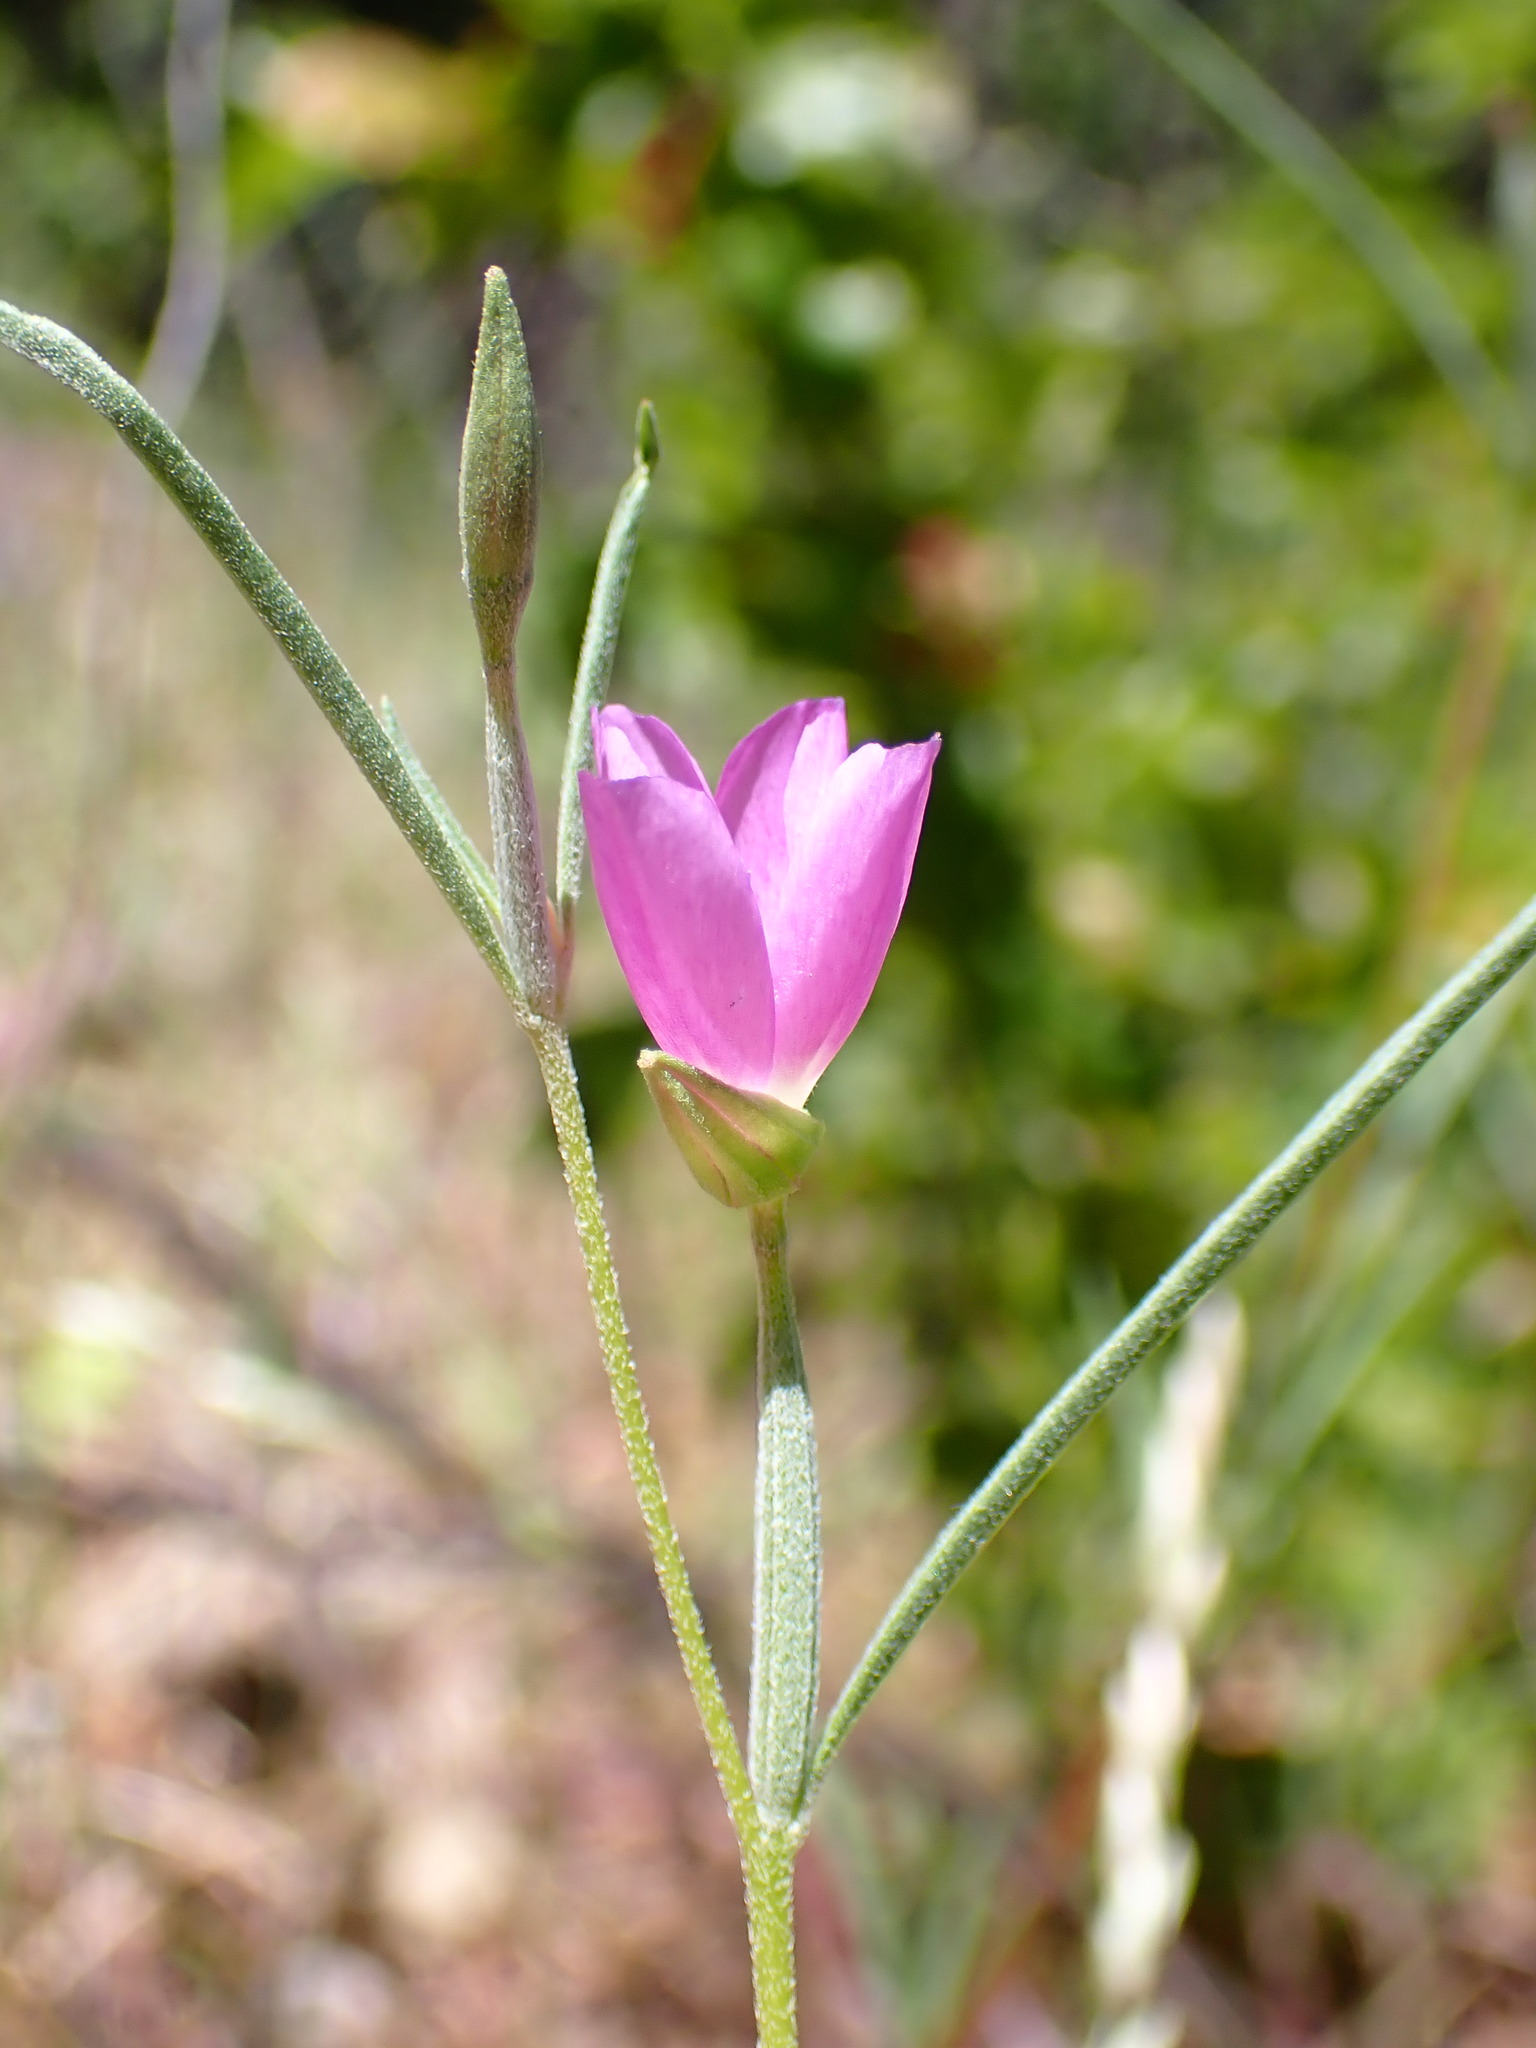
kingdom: Plantae
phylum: Tracheophyta
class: Magnoliopsida
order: Myrtales
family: Onagraceae
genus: Clarkia
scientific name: Clarkia affinis
